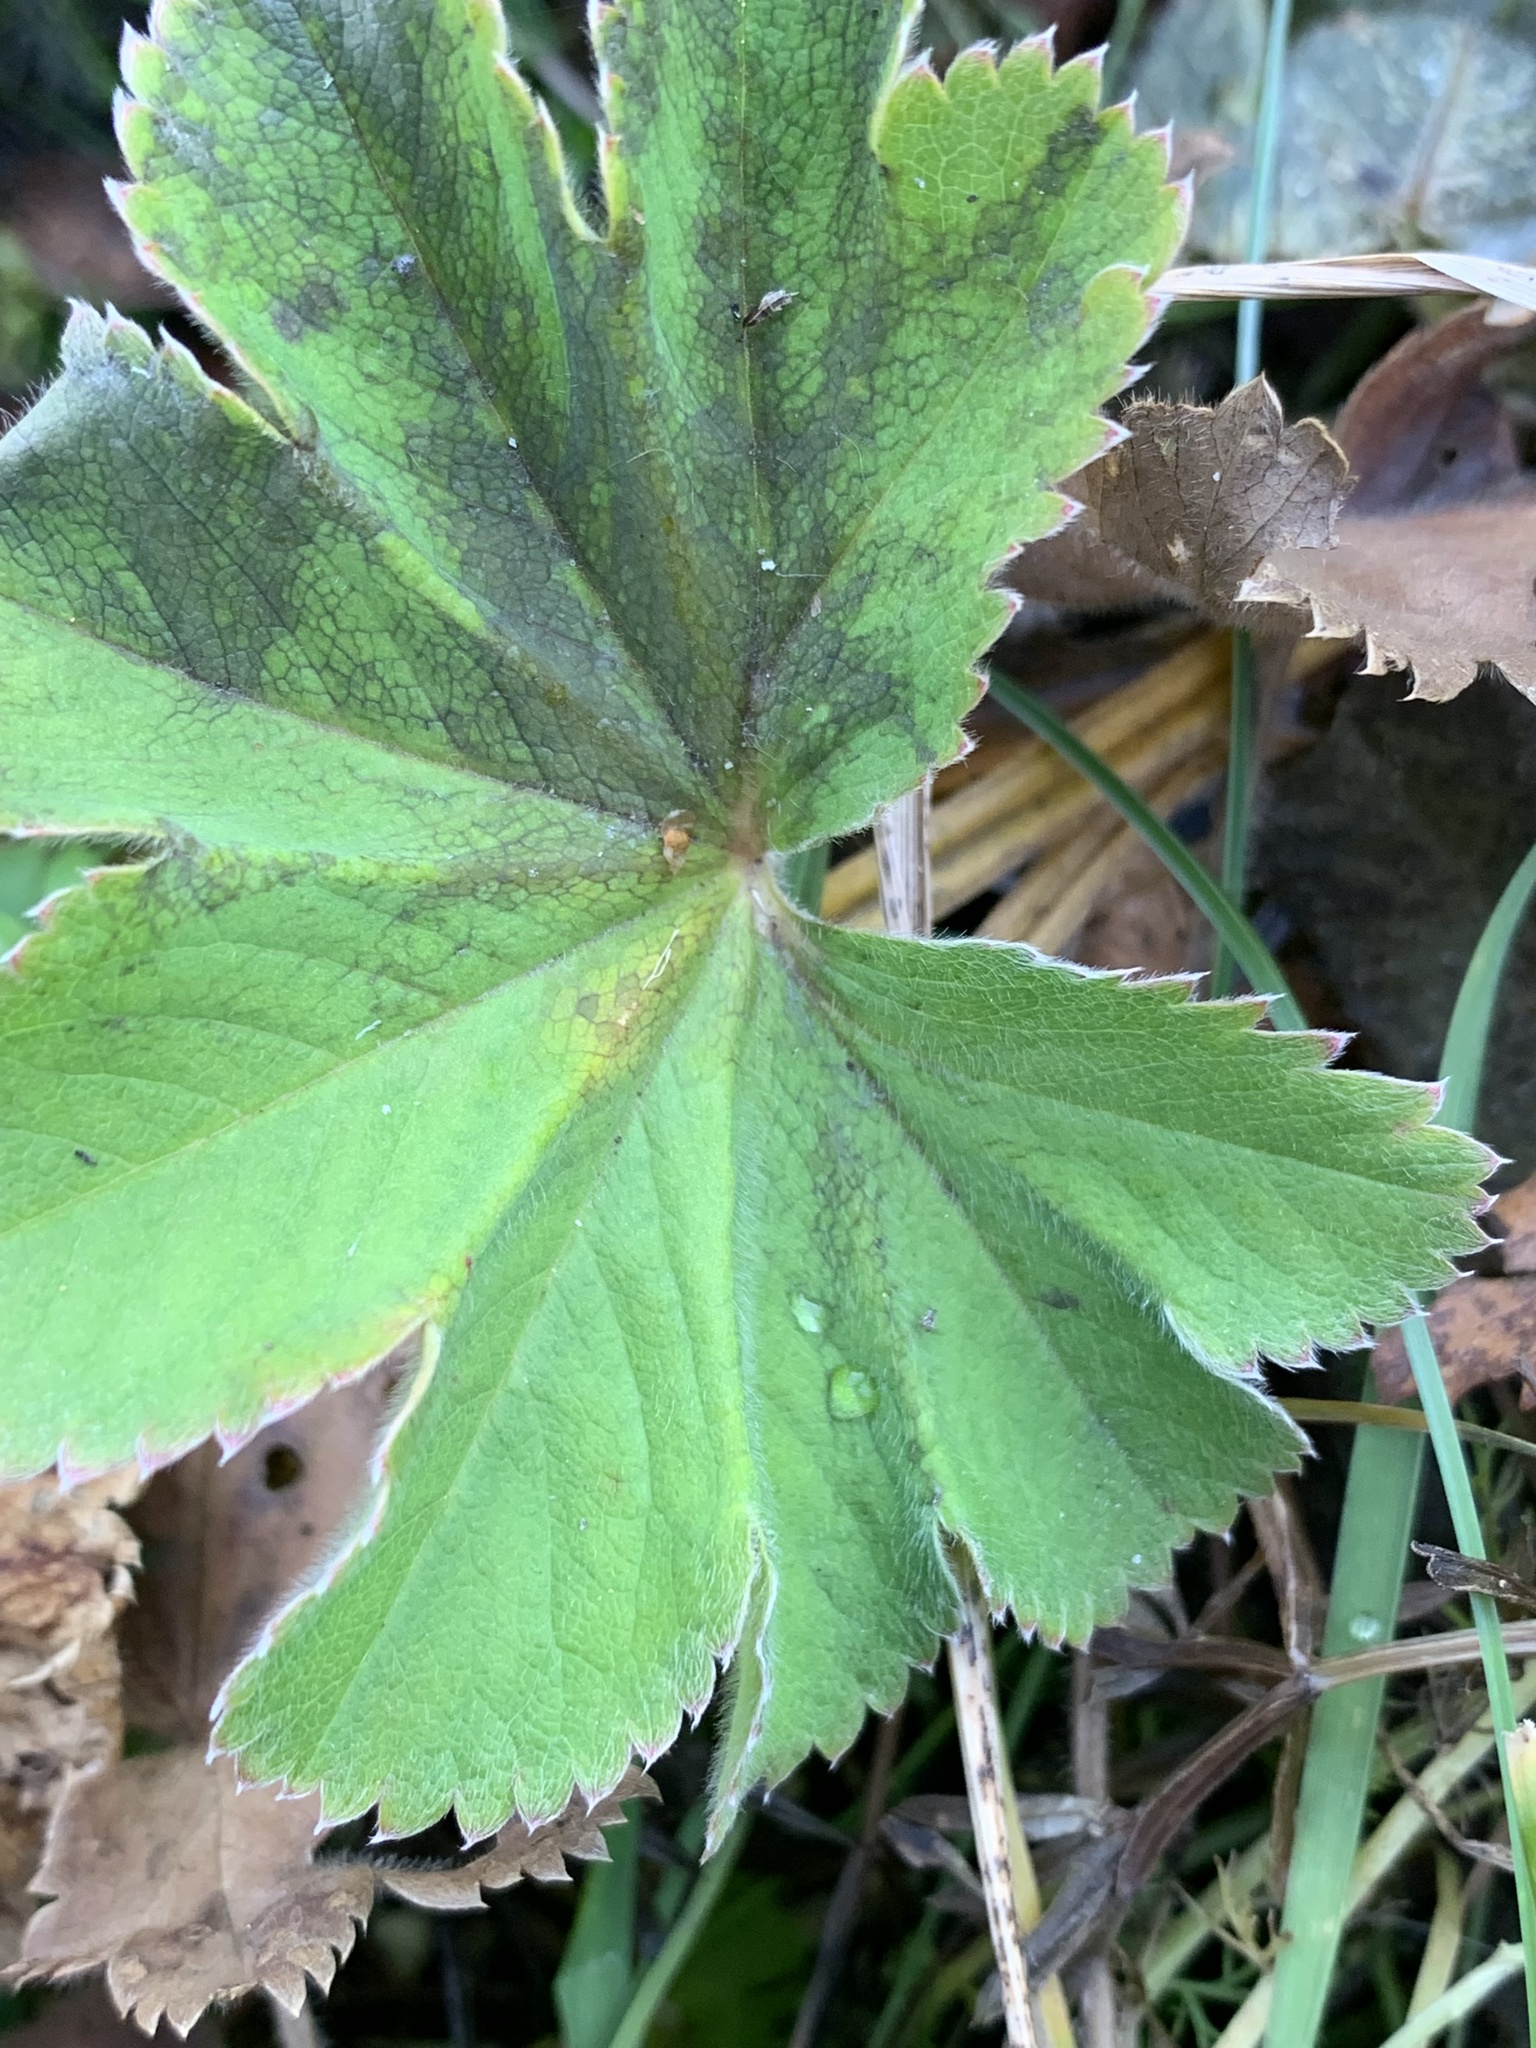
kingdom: Plantae
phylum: Tracheophyta
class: Magnoliopsida
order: Rosales
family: Rosaceae
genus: Alchemilla
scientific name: Alchemilla
